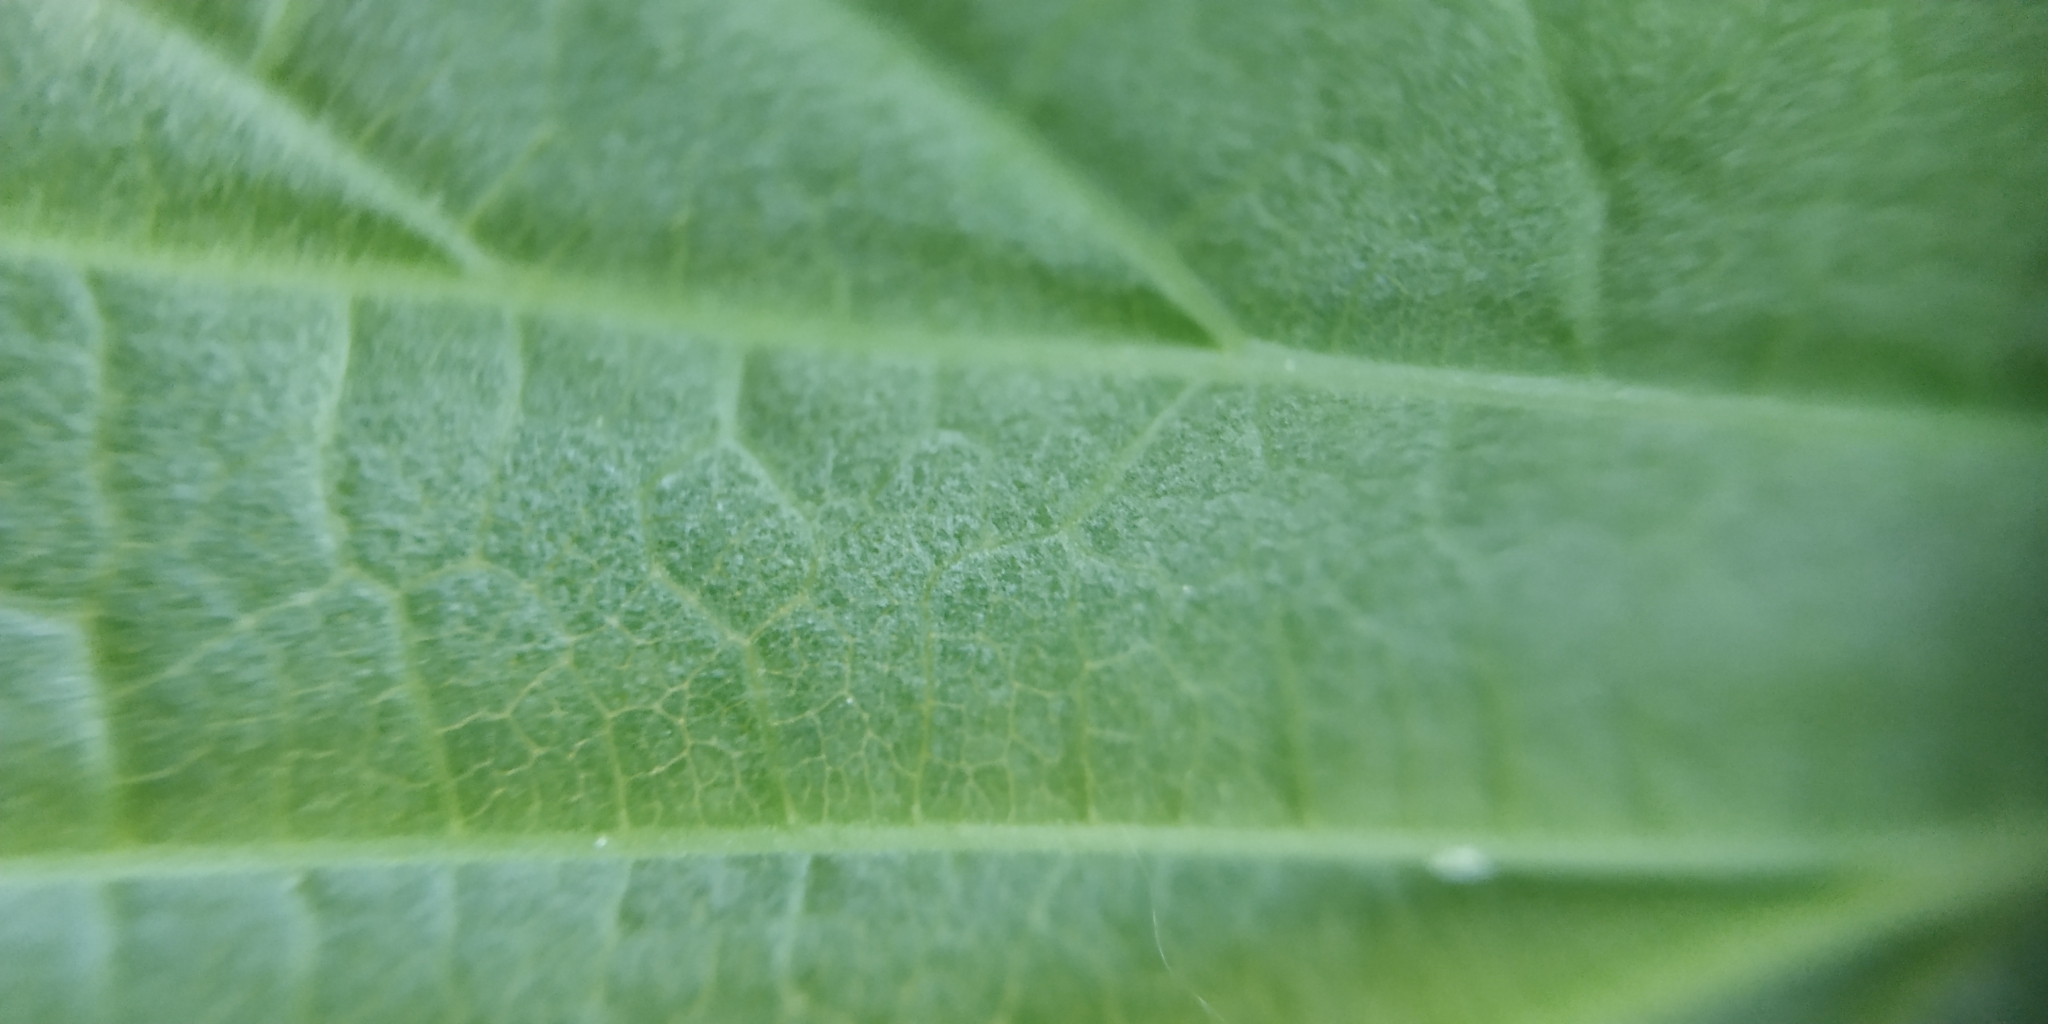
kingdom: Plantae
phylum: Tracheophyta
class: Magnoliopsida
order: Rosales
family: Rosaceae
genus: Filipendula
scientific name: Filipendula ulmaria
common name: Meadowsweet
